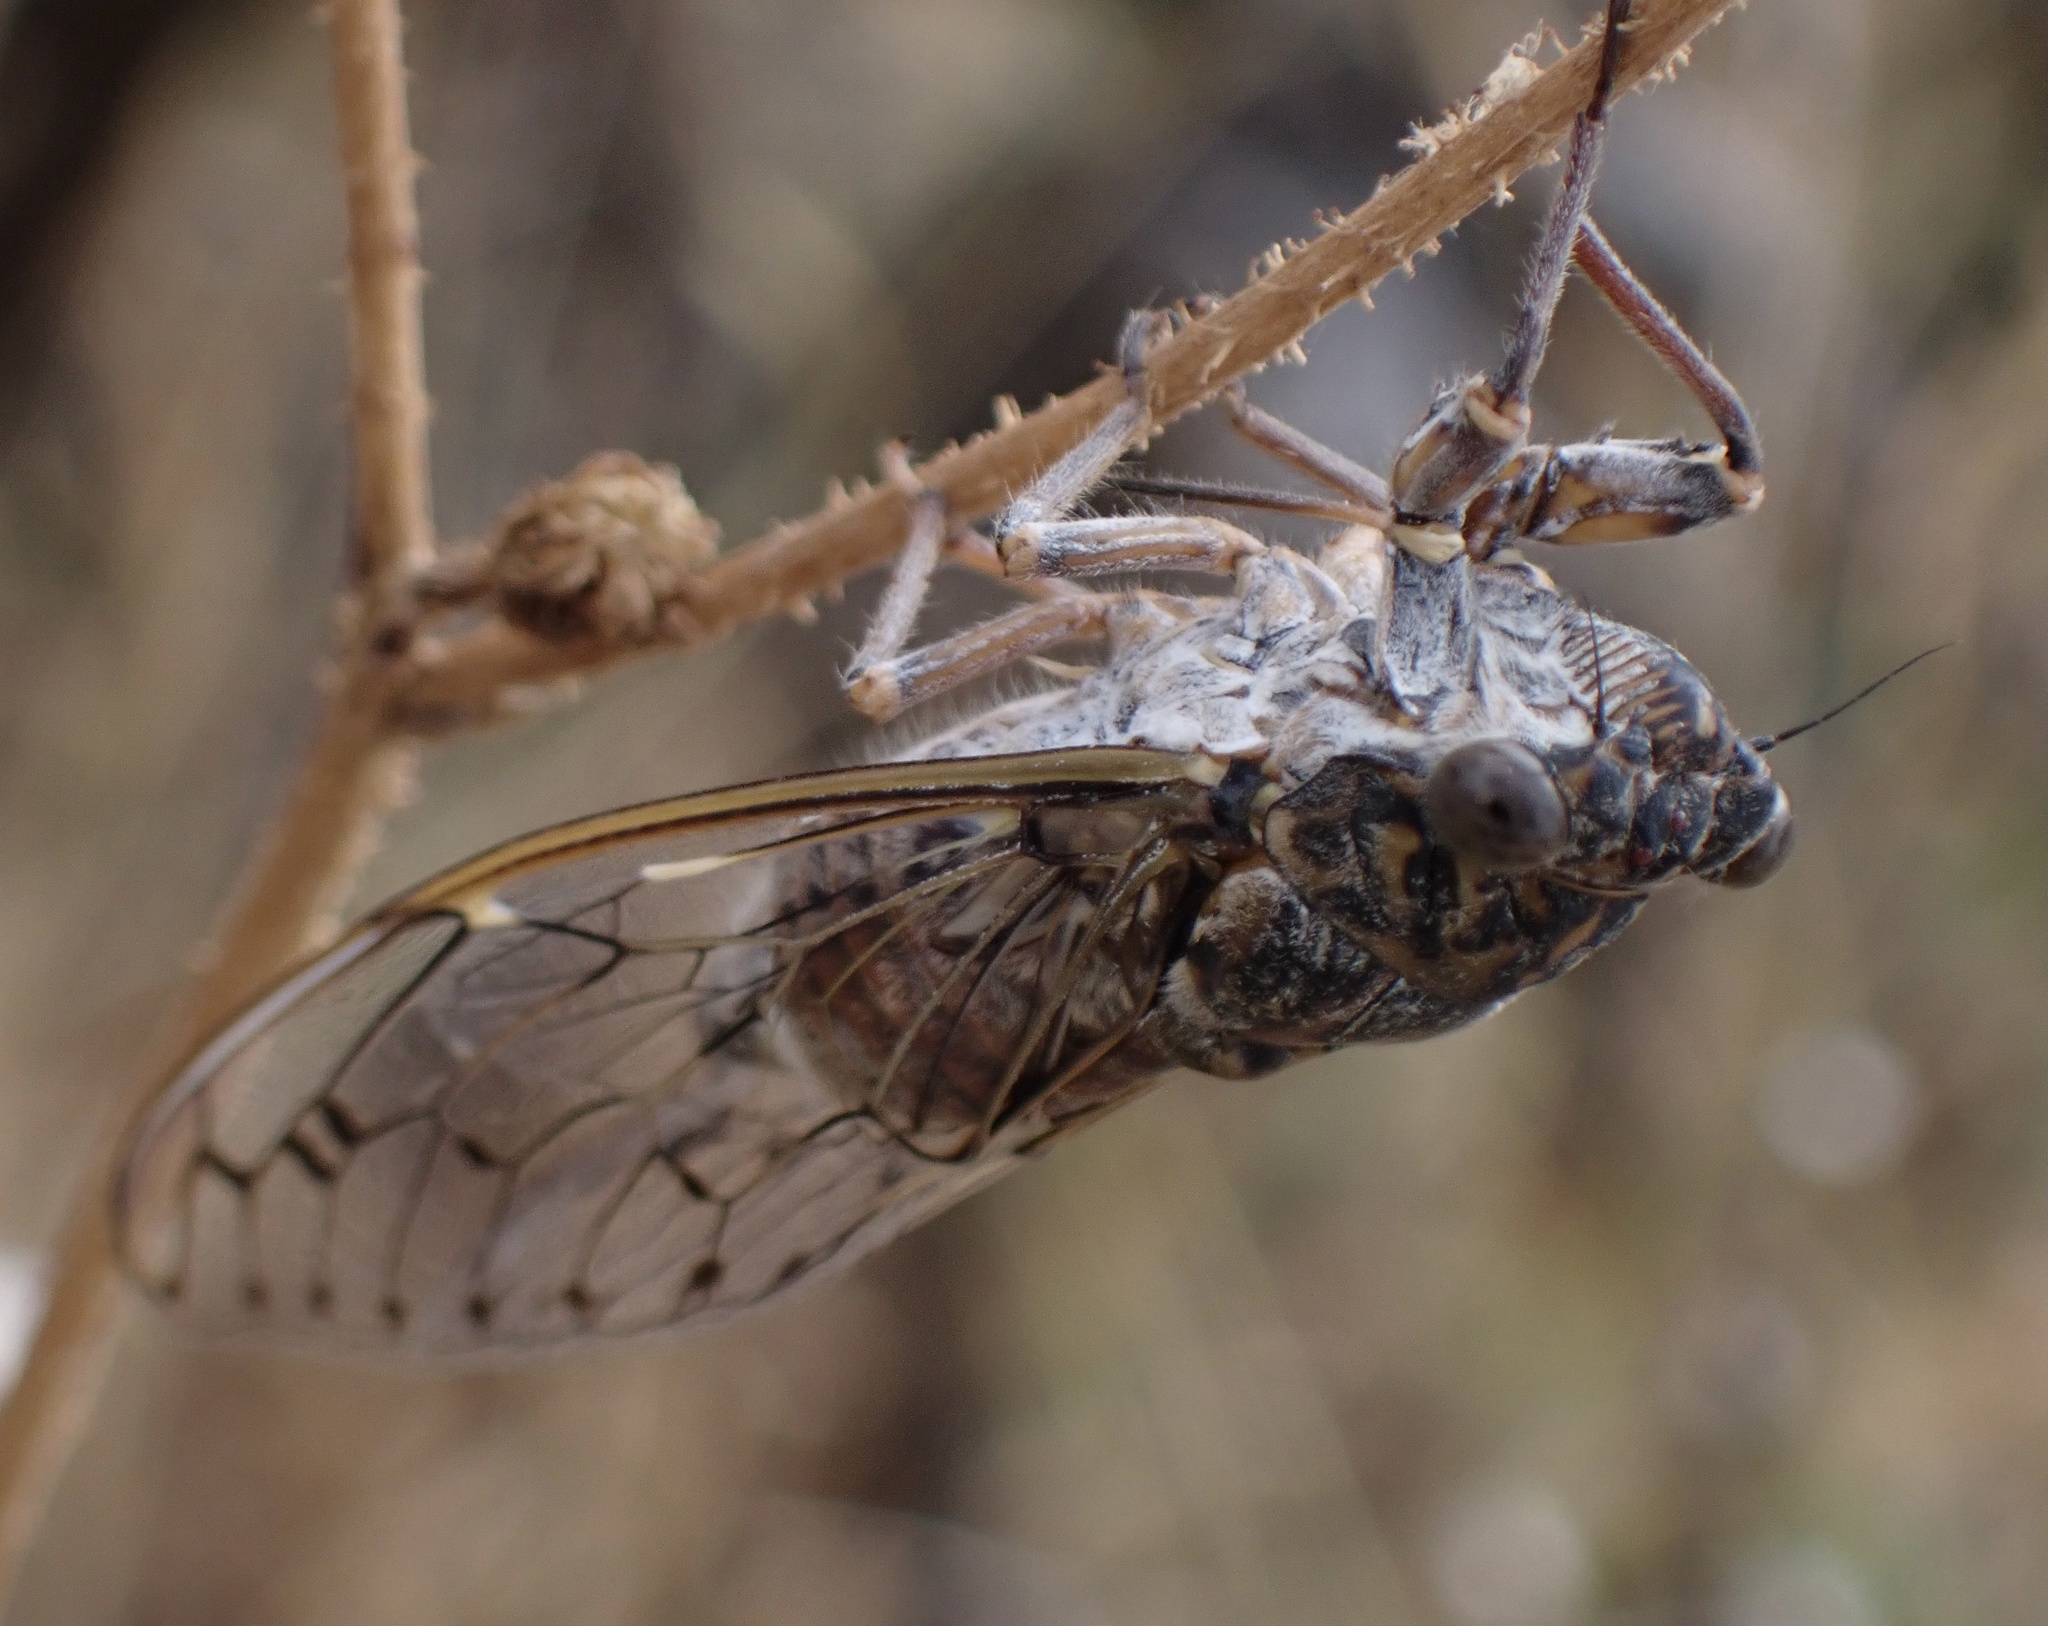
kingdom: Animalia
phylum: Arthropoda
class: Insecta
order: Hemiptera
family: Cicadidae
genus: Cicada
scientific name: Cicada orni
